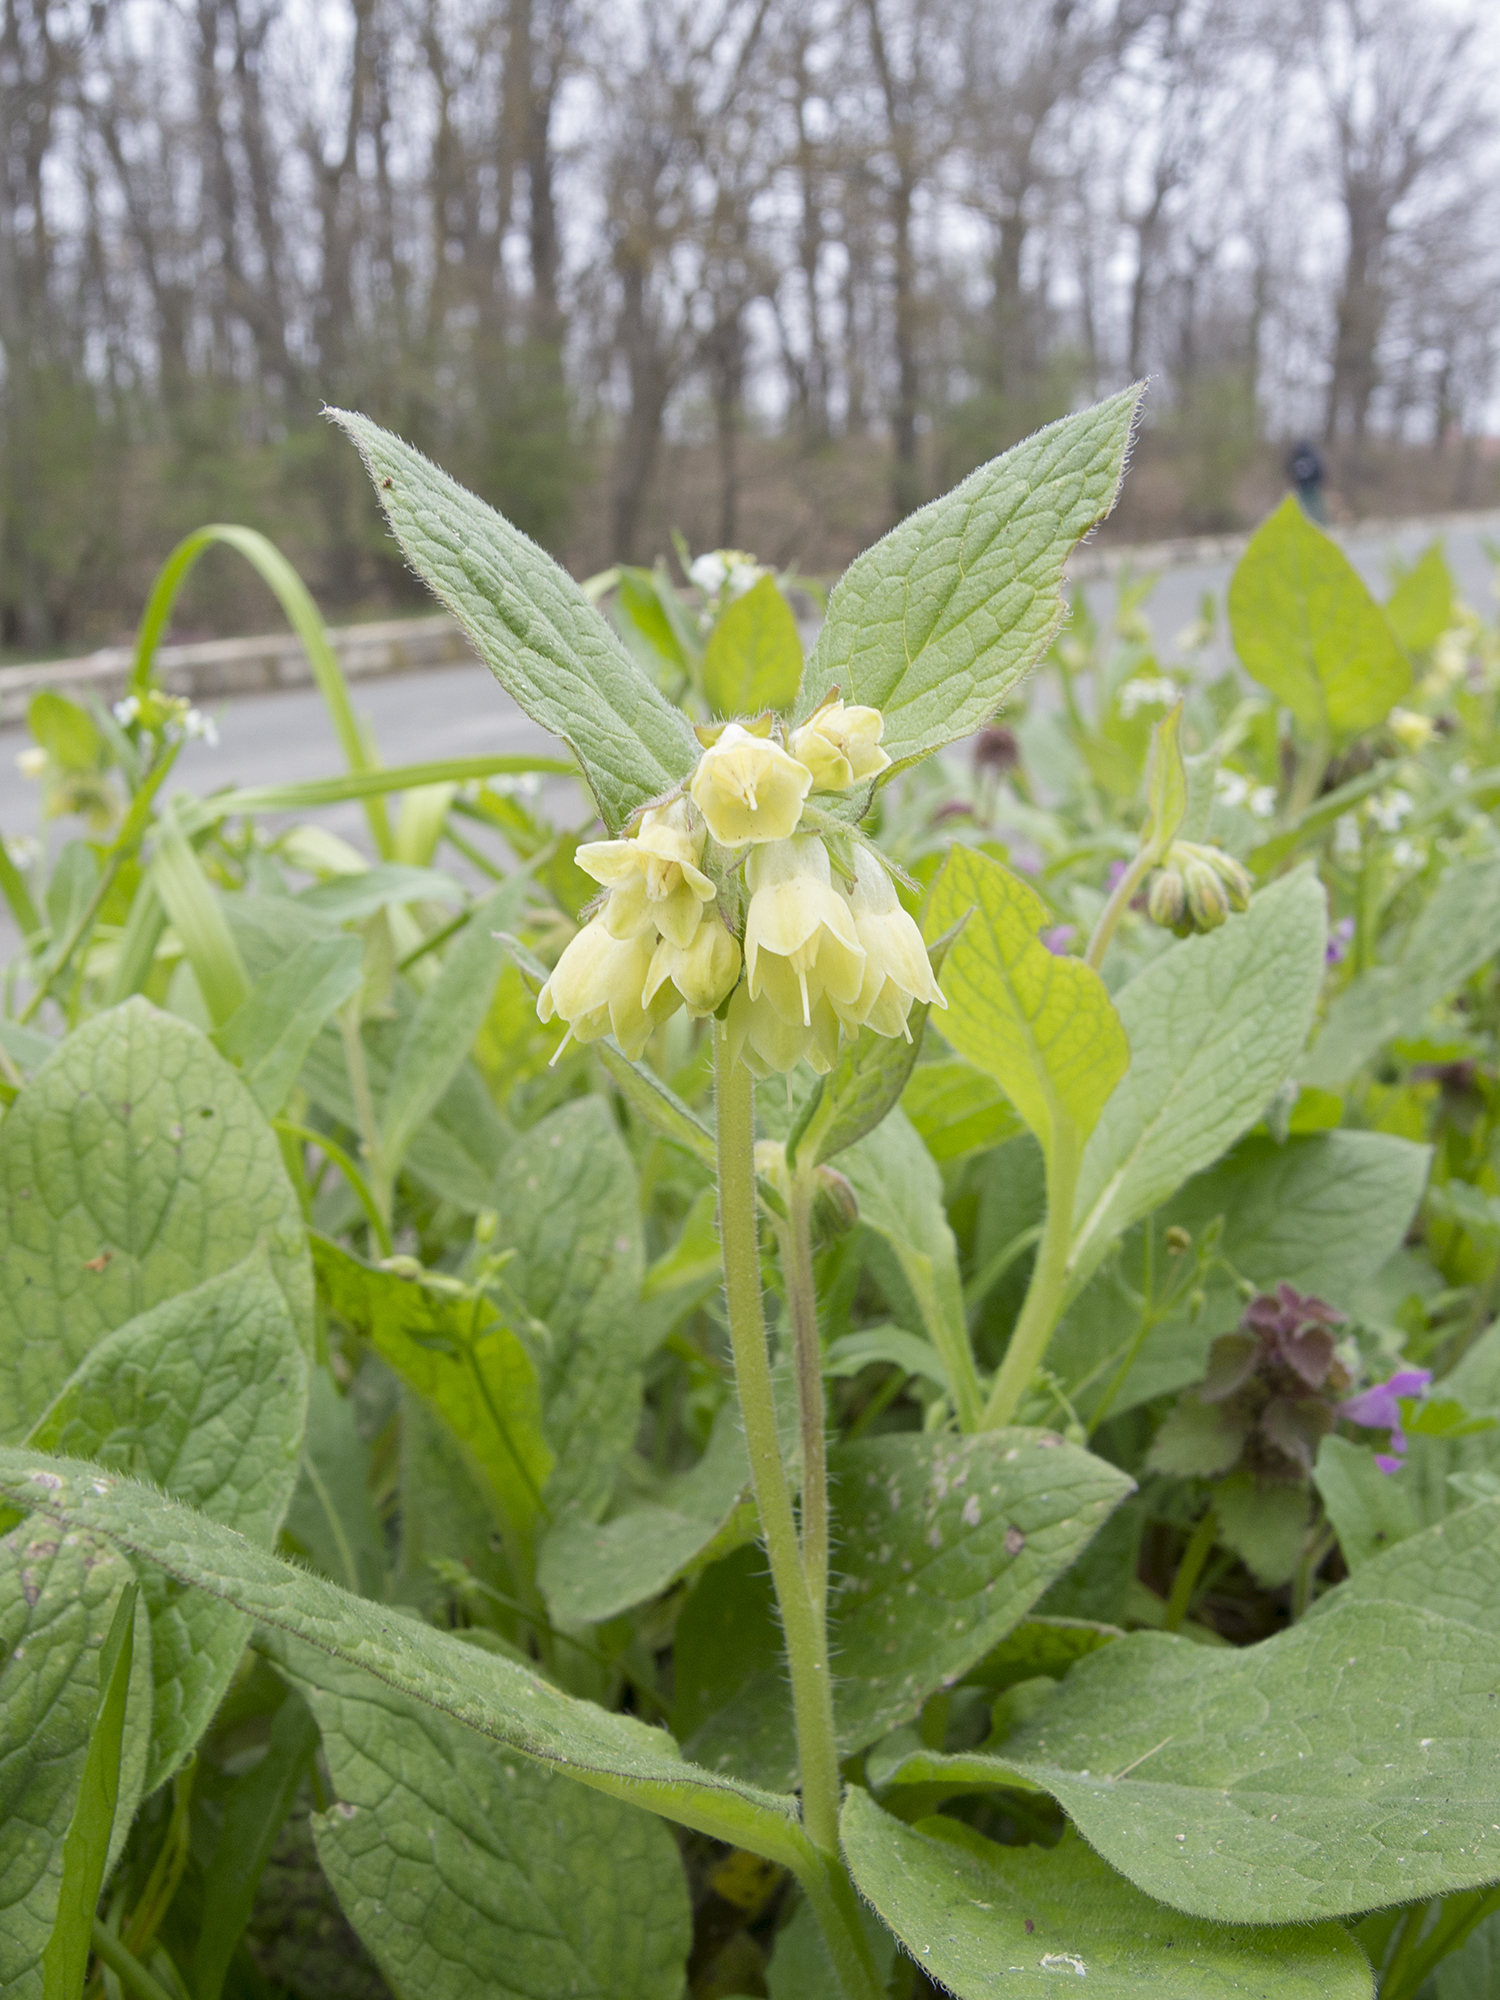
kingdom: Plantae
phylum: Tracheophyta
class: Magnoliopsida
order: Boraginales
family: Boraginaceae
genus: Symphytum
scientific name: Symphytum tuberosum
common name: Tuberous comfrey
